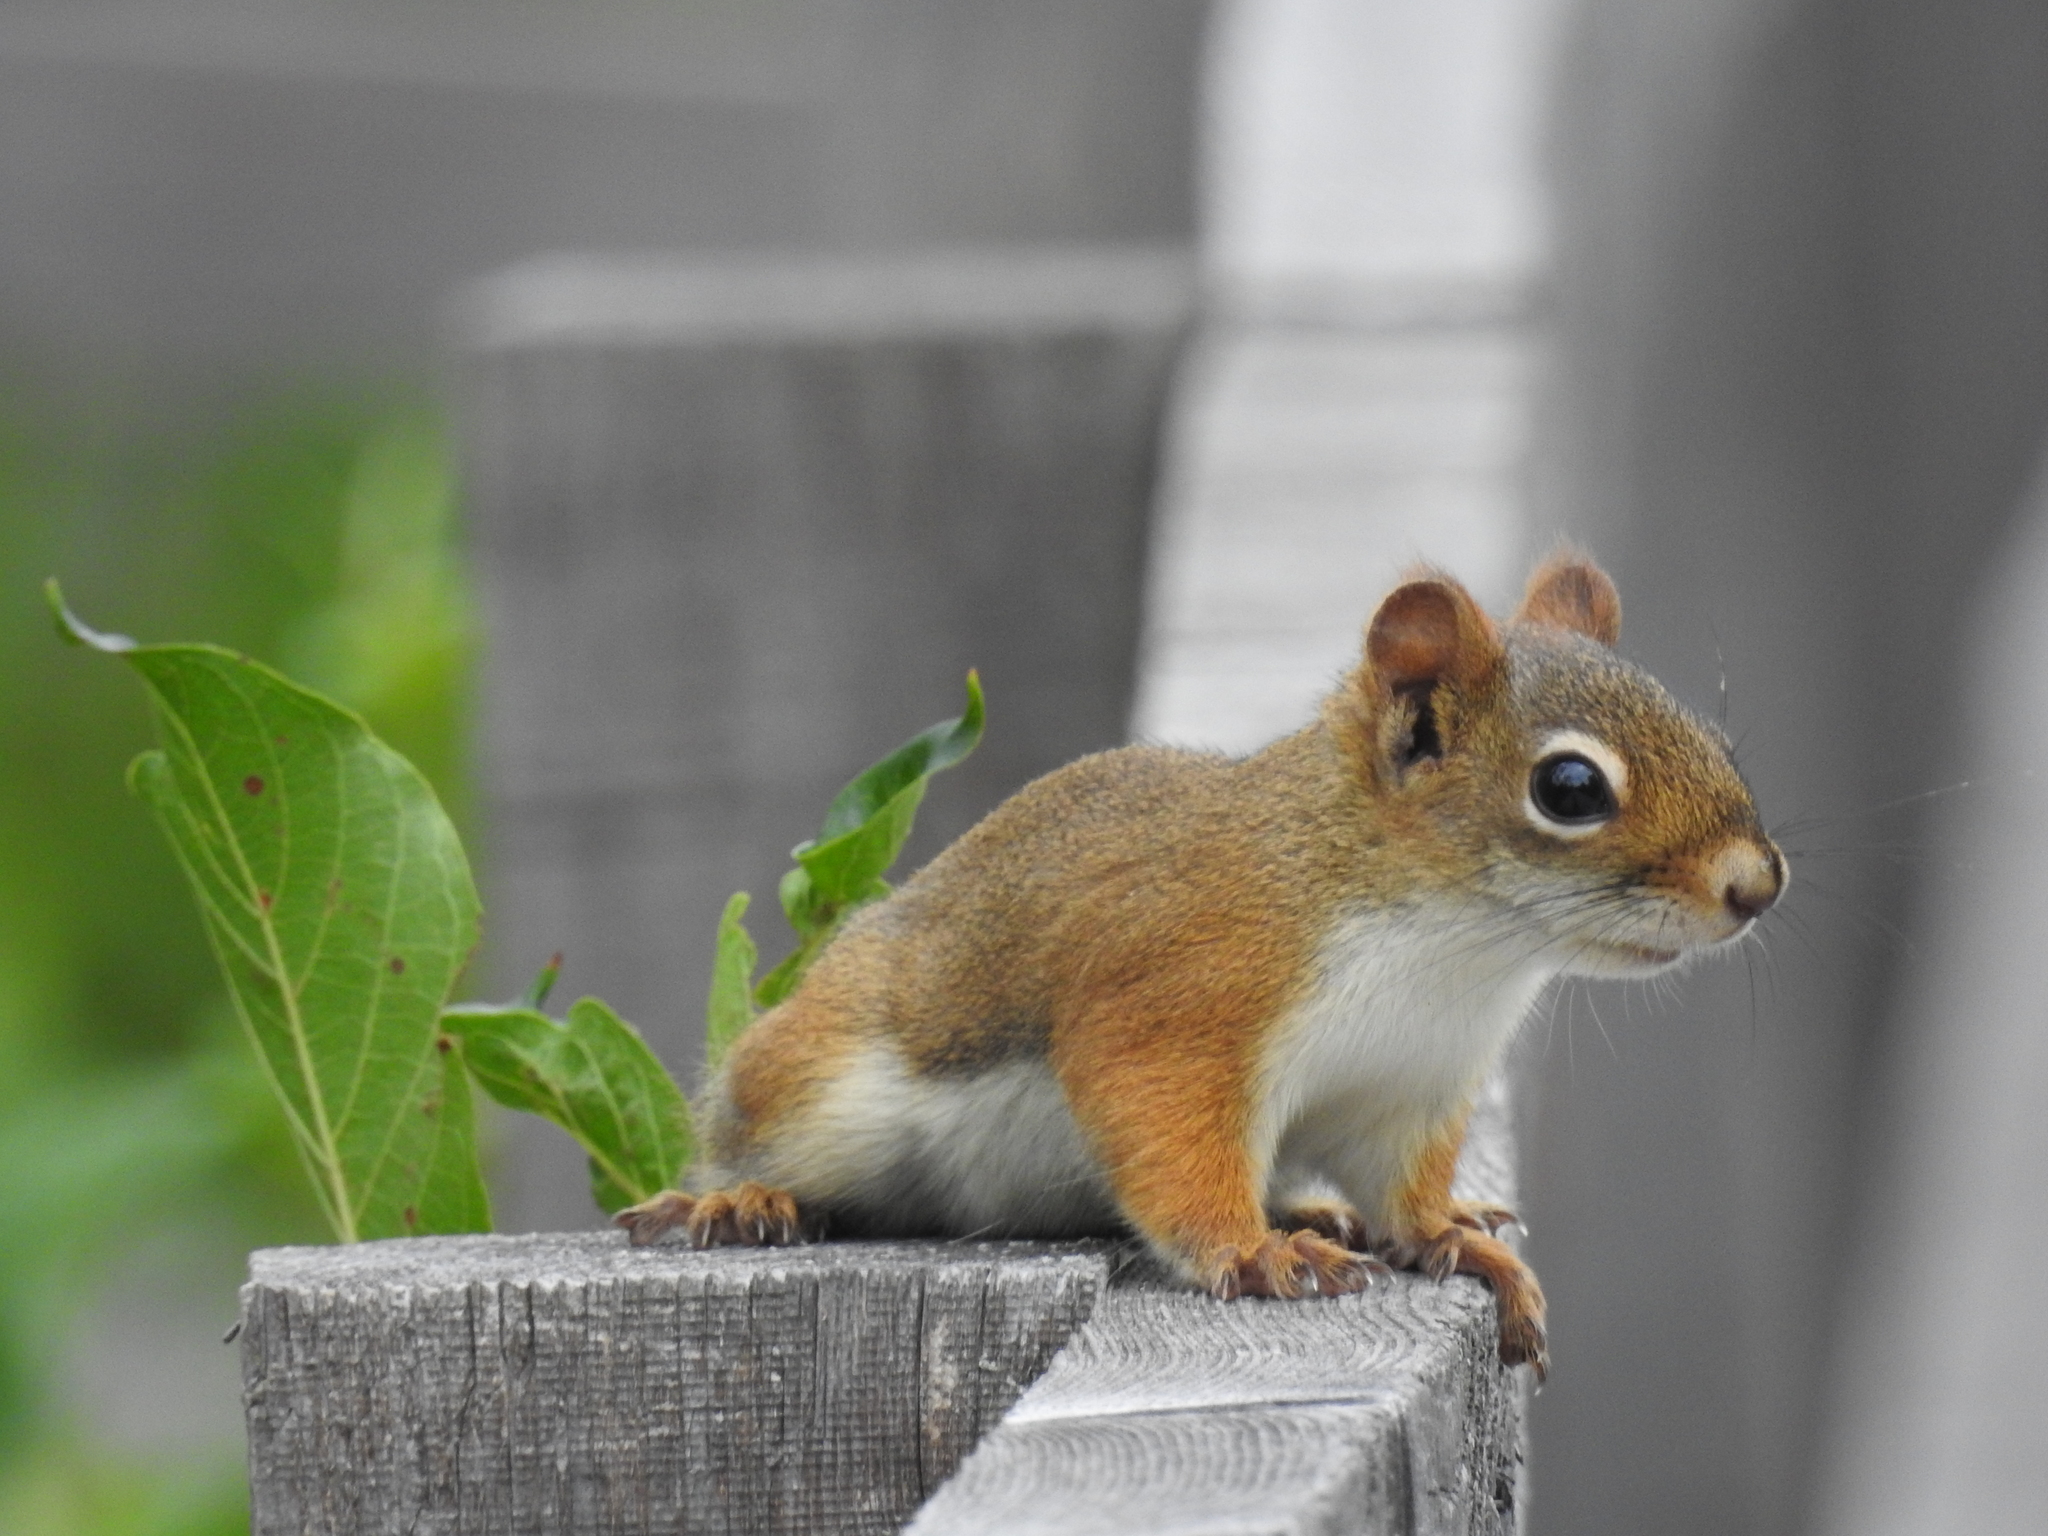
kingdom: Animalia
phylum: Chordata
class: Mammalia
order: Rodentia
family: Sciuridae
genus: Tamiasciurus
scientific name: Tamiasciurus hudsonicus
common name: Red squirrel
